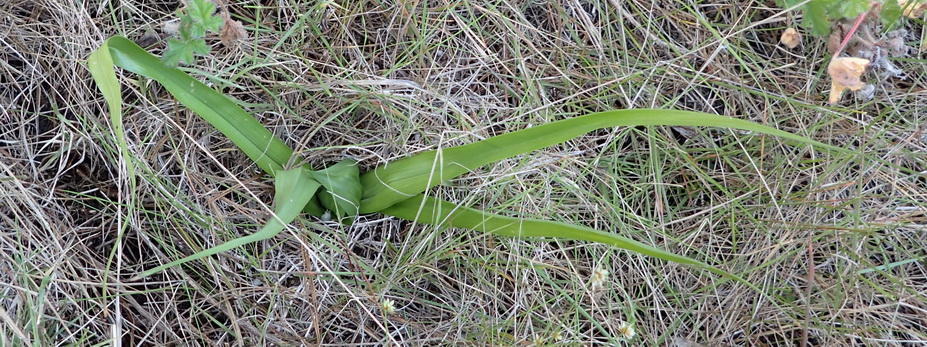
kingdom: Plantae
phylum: Tracheophyta
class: Liliopsida
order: Liliales
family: Colchicaceae
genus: Colchicum
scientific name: Colchicum longipes
